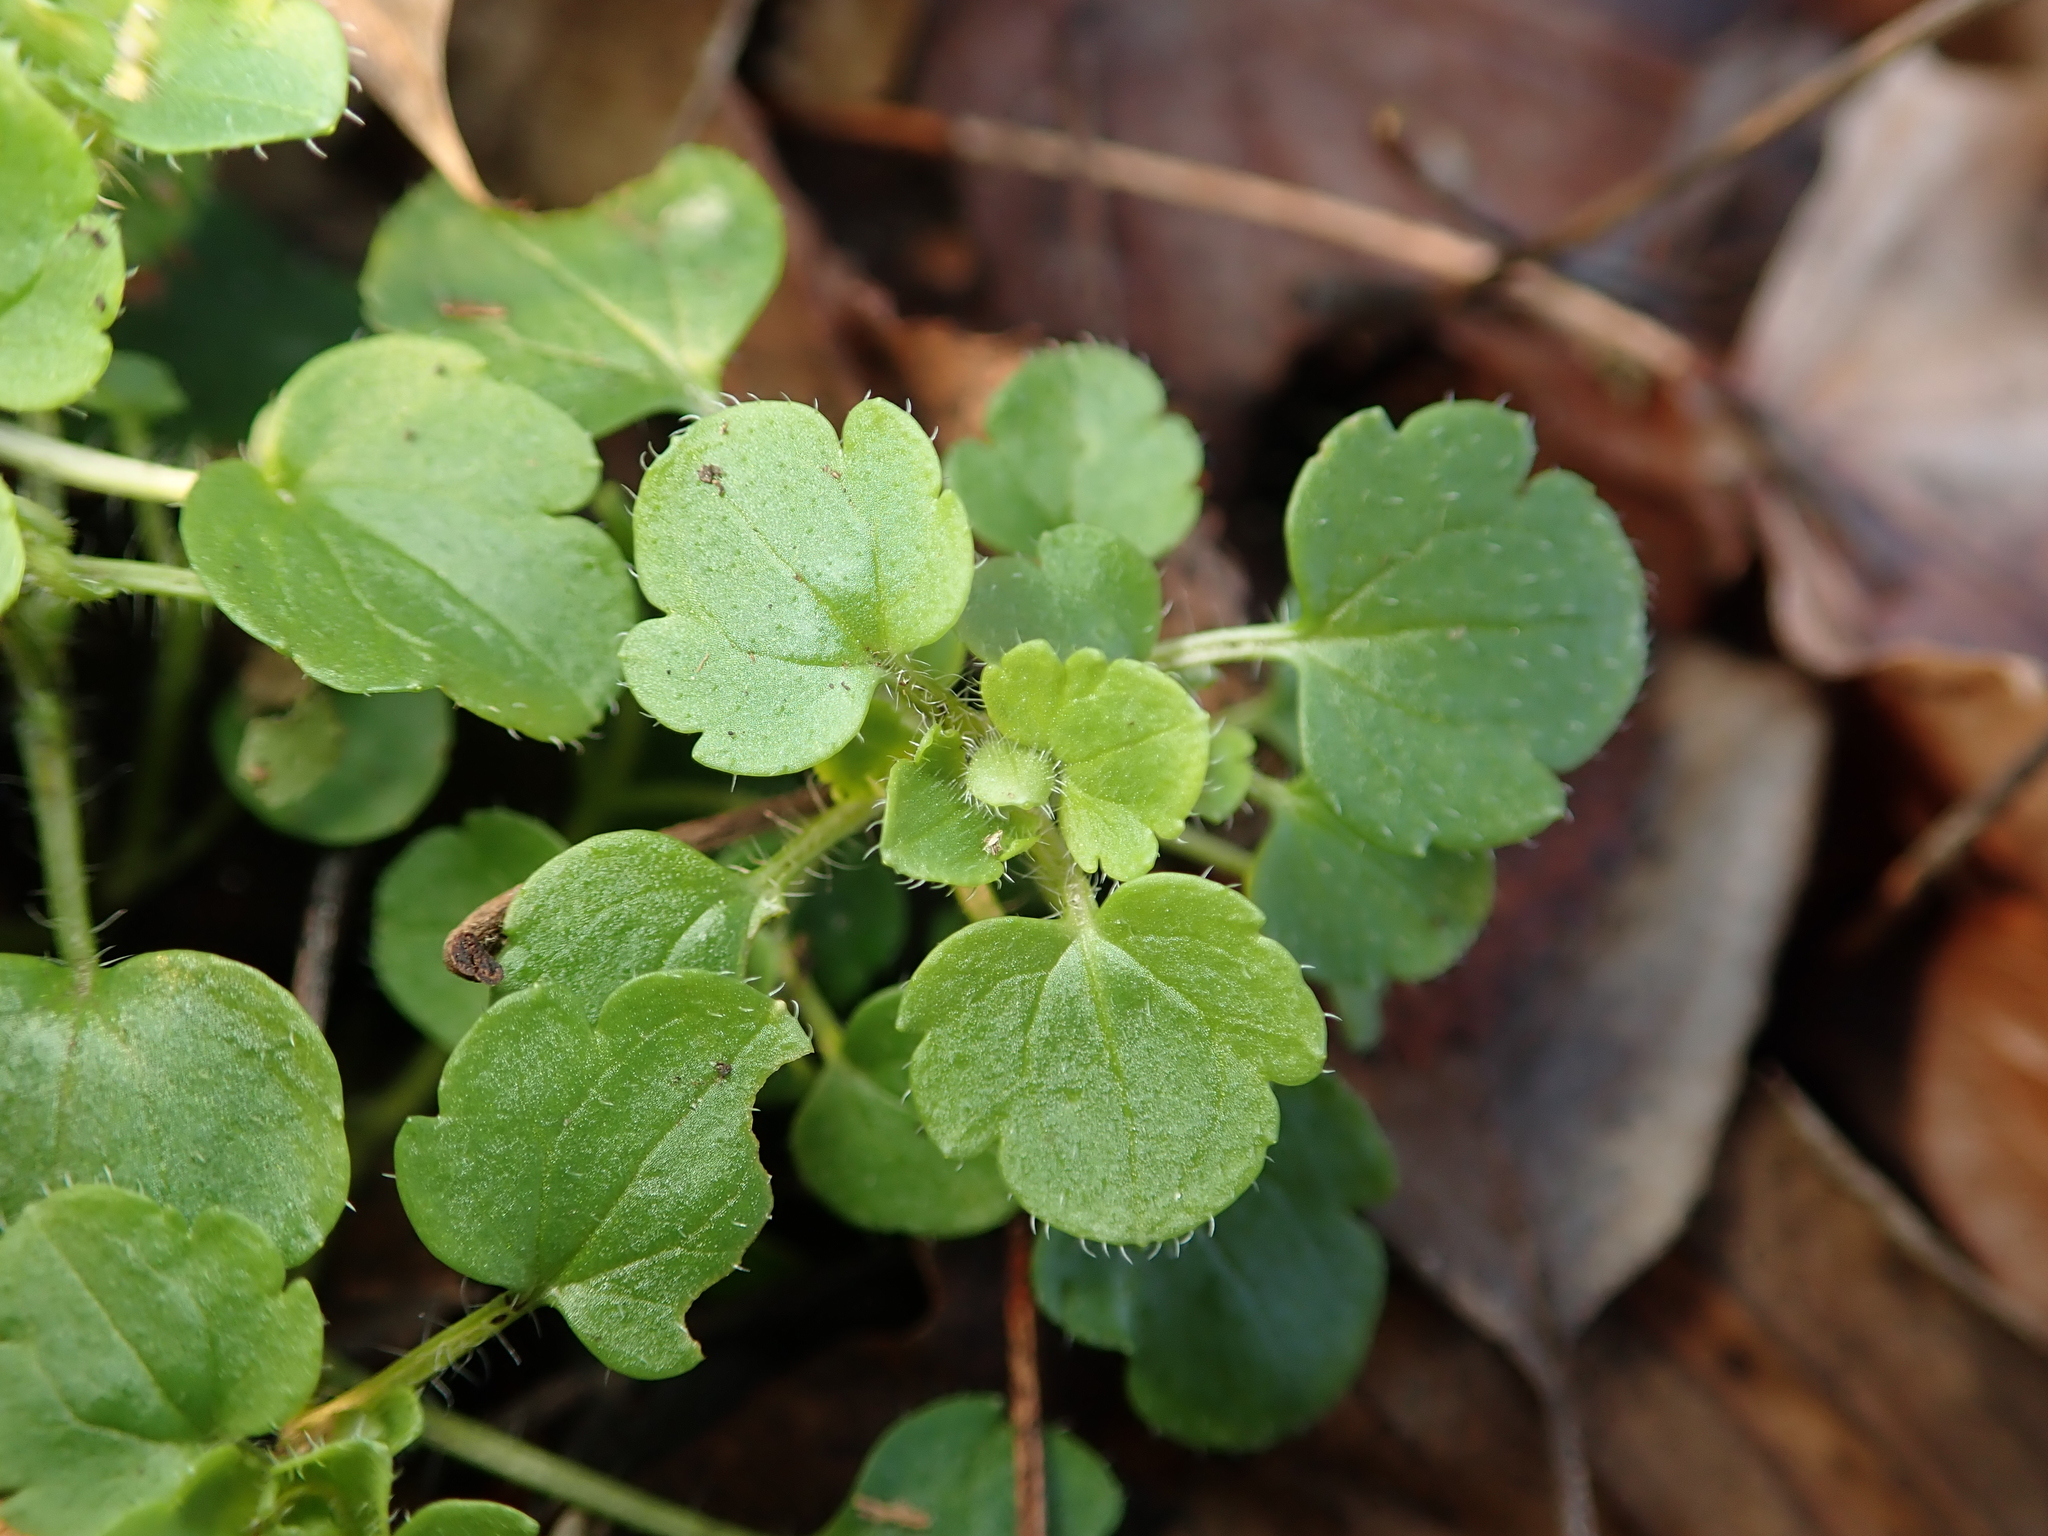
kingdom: Plantae
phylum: Tracheophyta
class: Magnoliopsida
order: Lamiales
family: Plantaginaceae
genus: Veronica
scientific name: Veronica hederifolia
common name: Ivy-leaved speedwell
